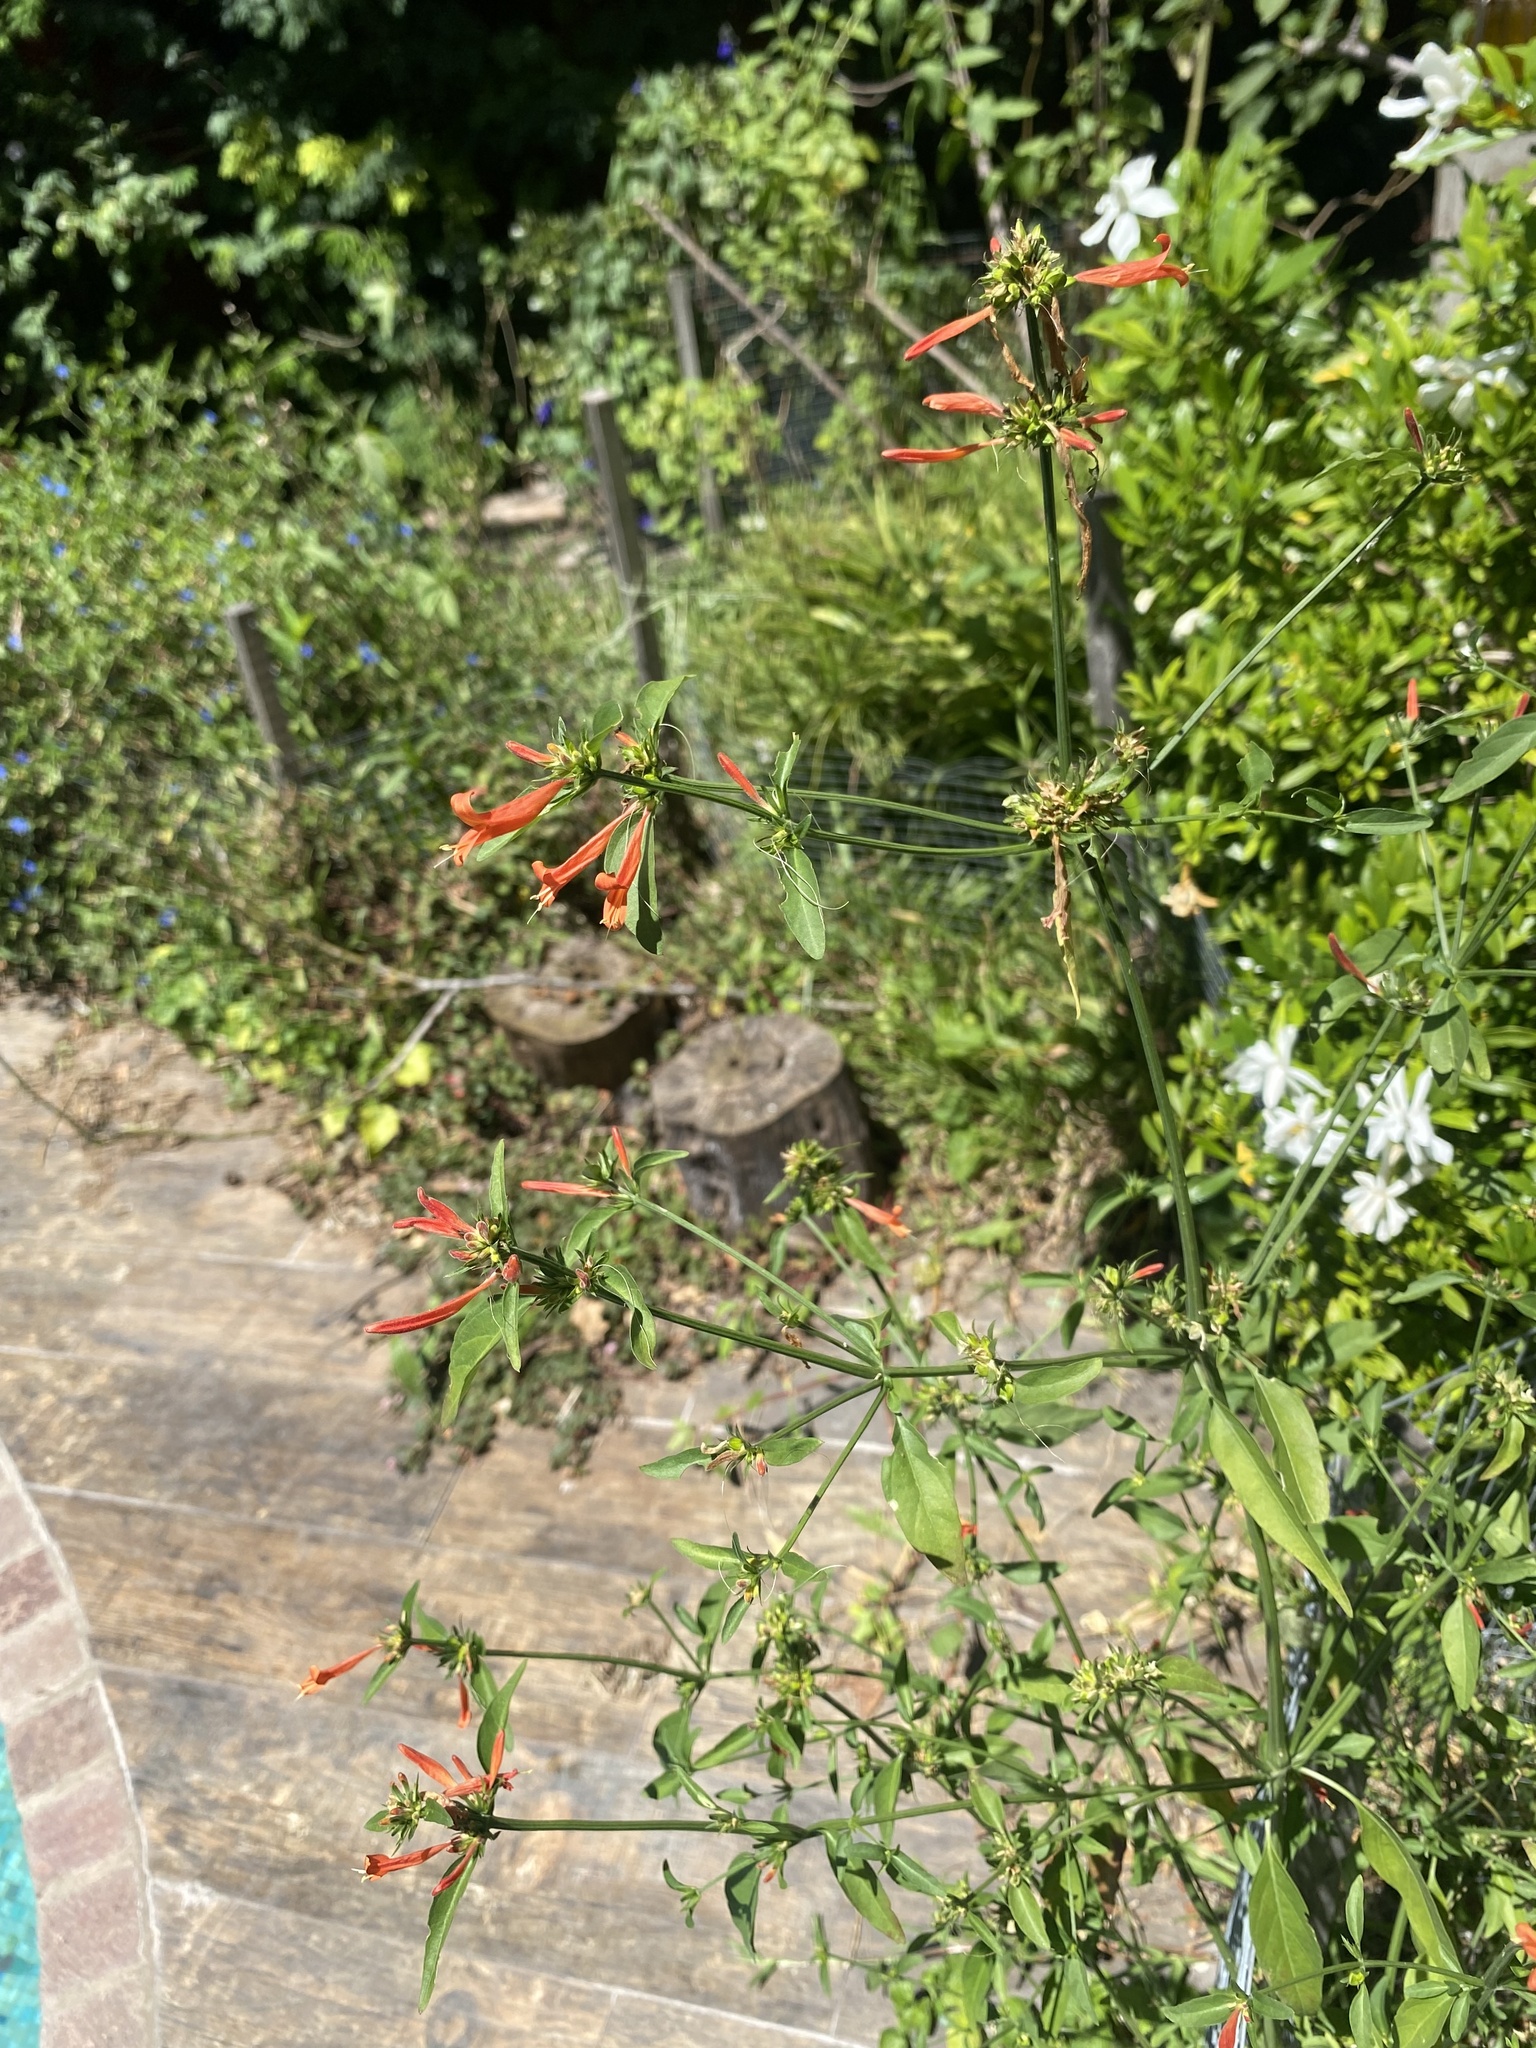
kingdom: Plantae
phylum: Tracheophyta
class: Magnoliopsida
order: Lamiales
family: Acanthaceae
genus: Dicliptera
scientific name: Dicliptera squarrosa
